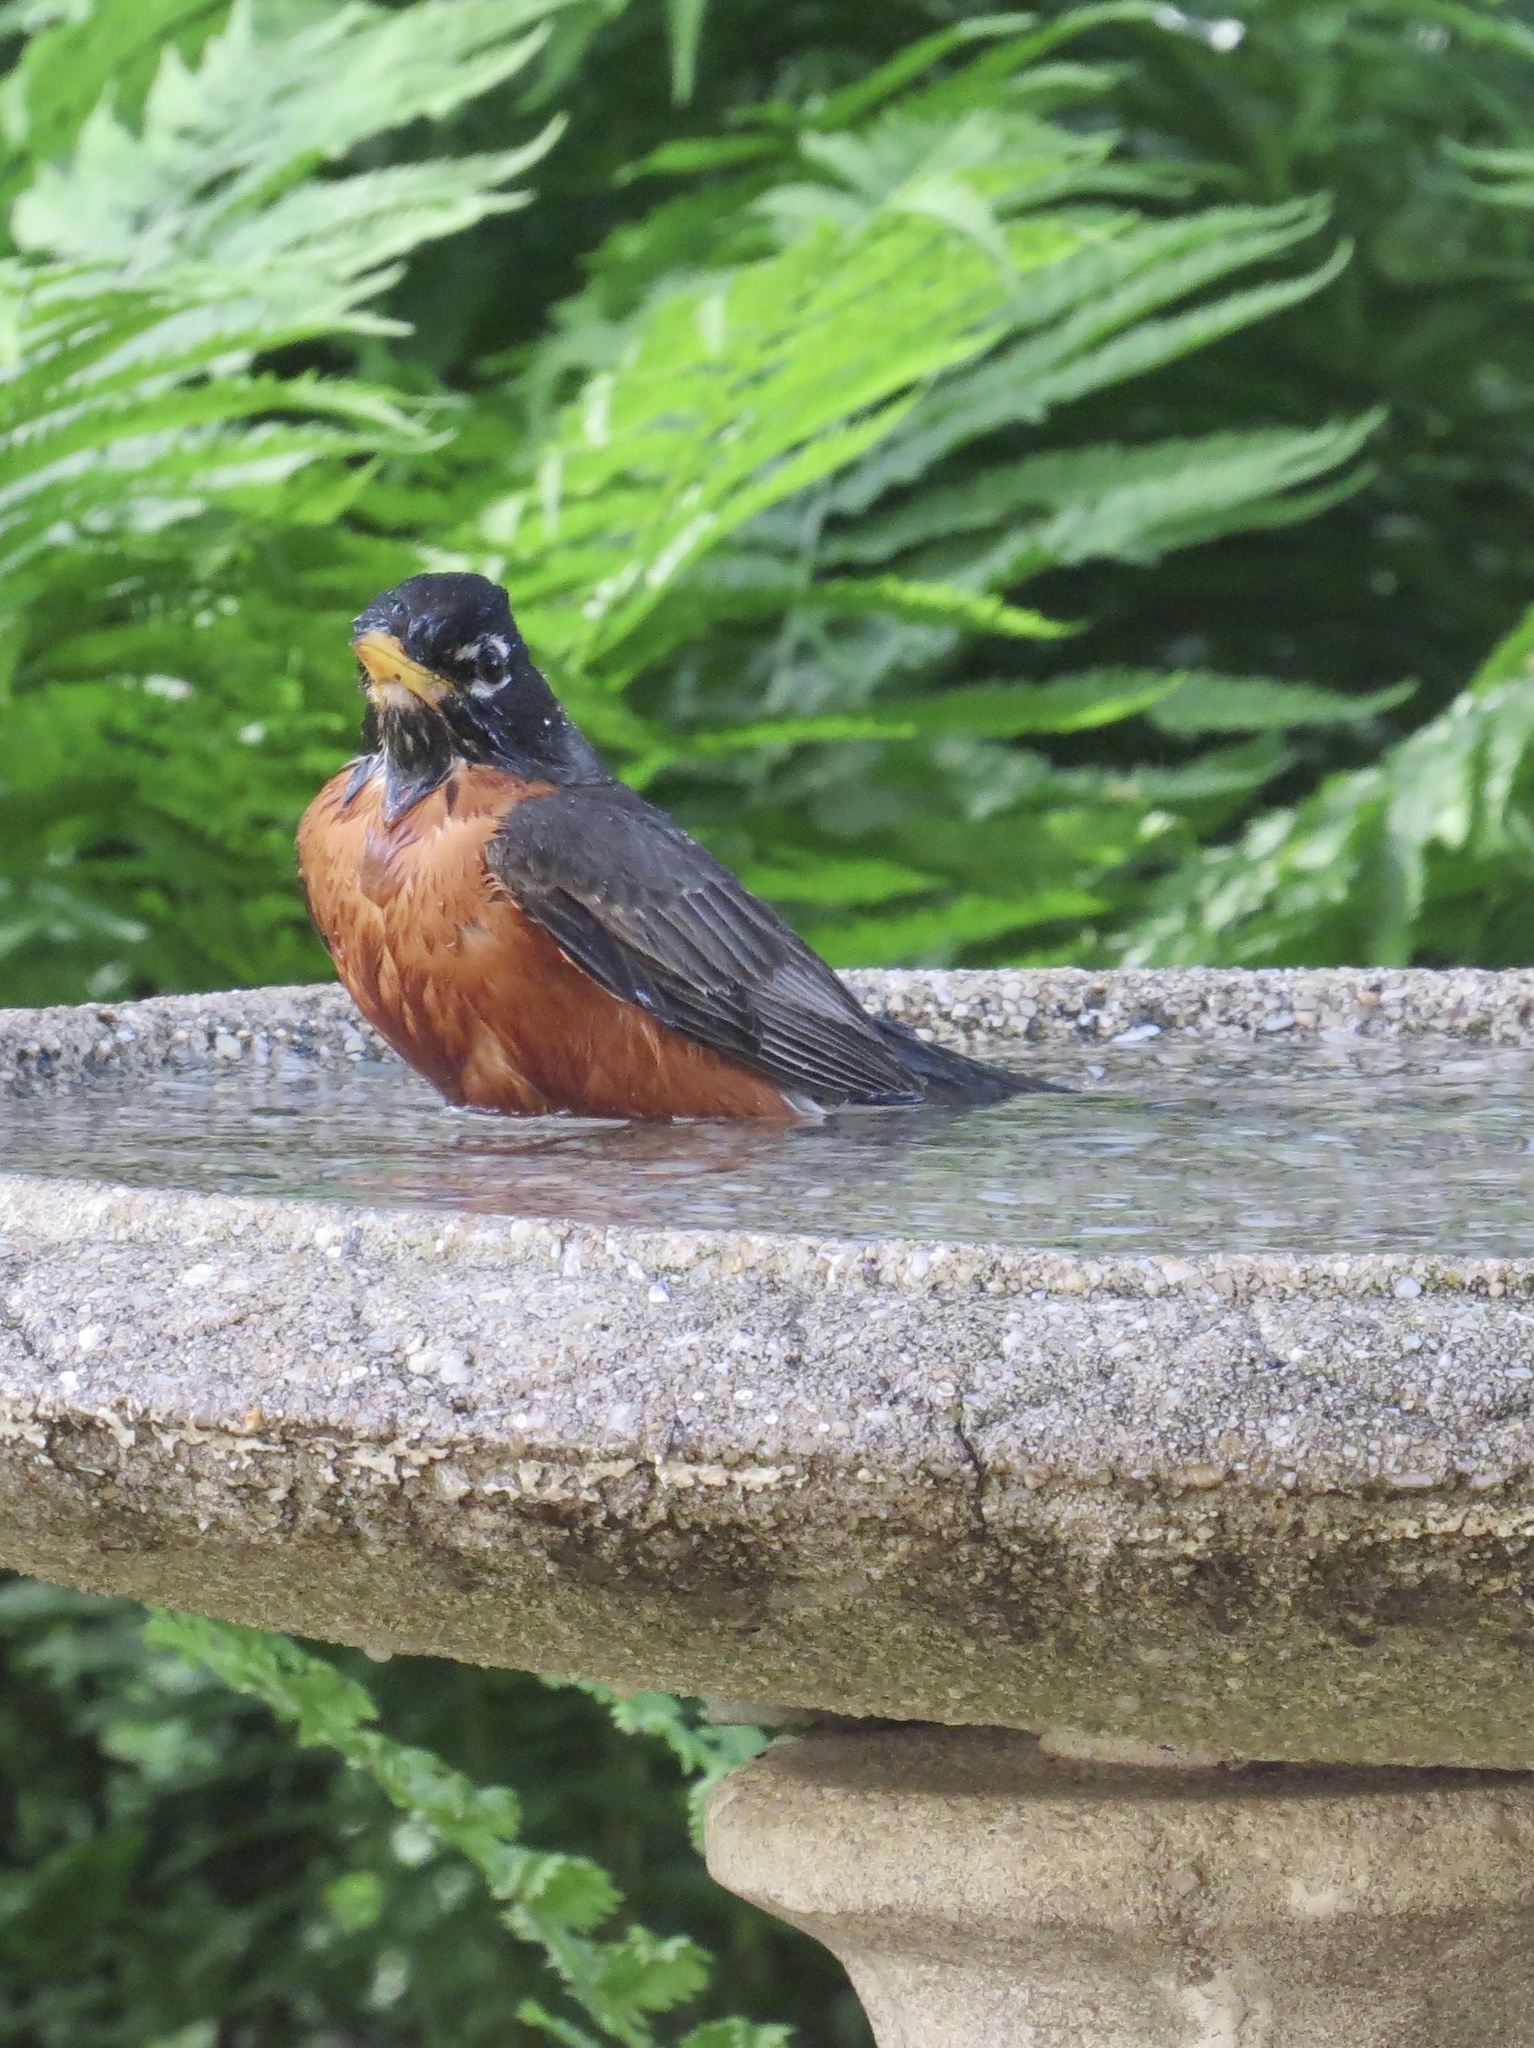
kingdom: Animalia
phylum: Chordata
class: Aves
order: Passeriformes
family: Turdidae
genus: Turdus
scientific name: Turdus migratorius
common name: American robin
